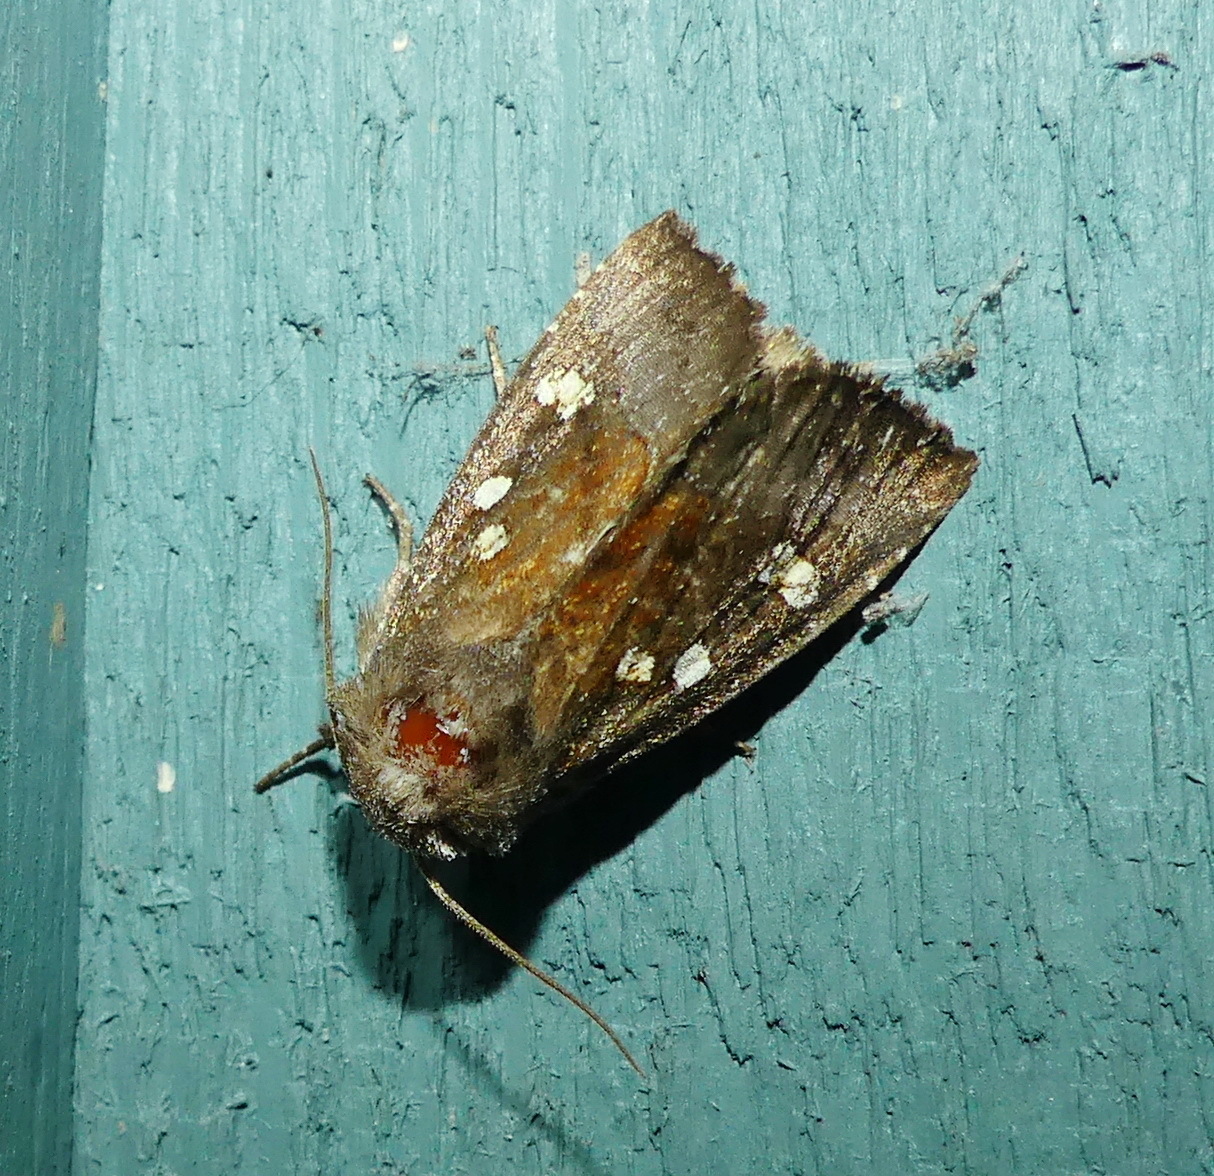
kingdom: Animalia
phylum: Arthropoda
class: Insecta
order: Lepidoptera
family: Noctuidae
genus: Papaipema
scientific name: Papaipema unimoda
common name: Meadow rue borer moth
